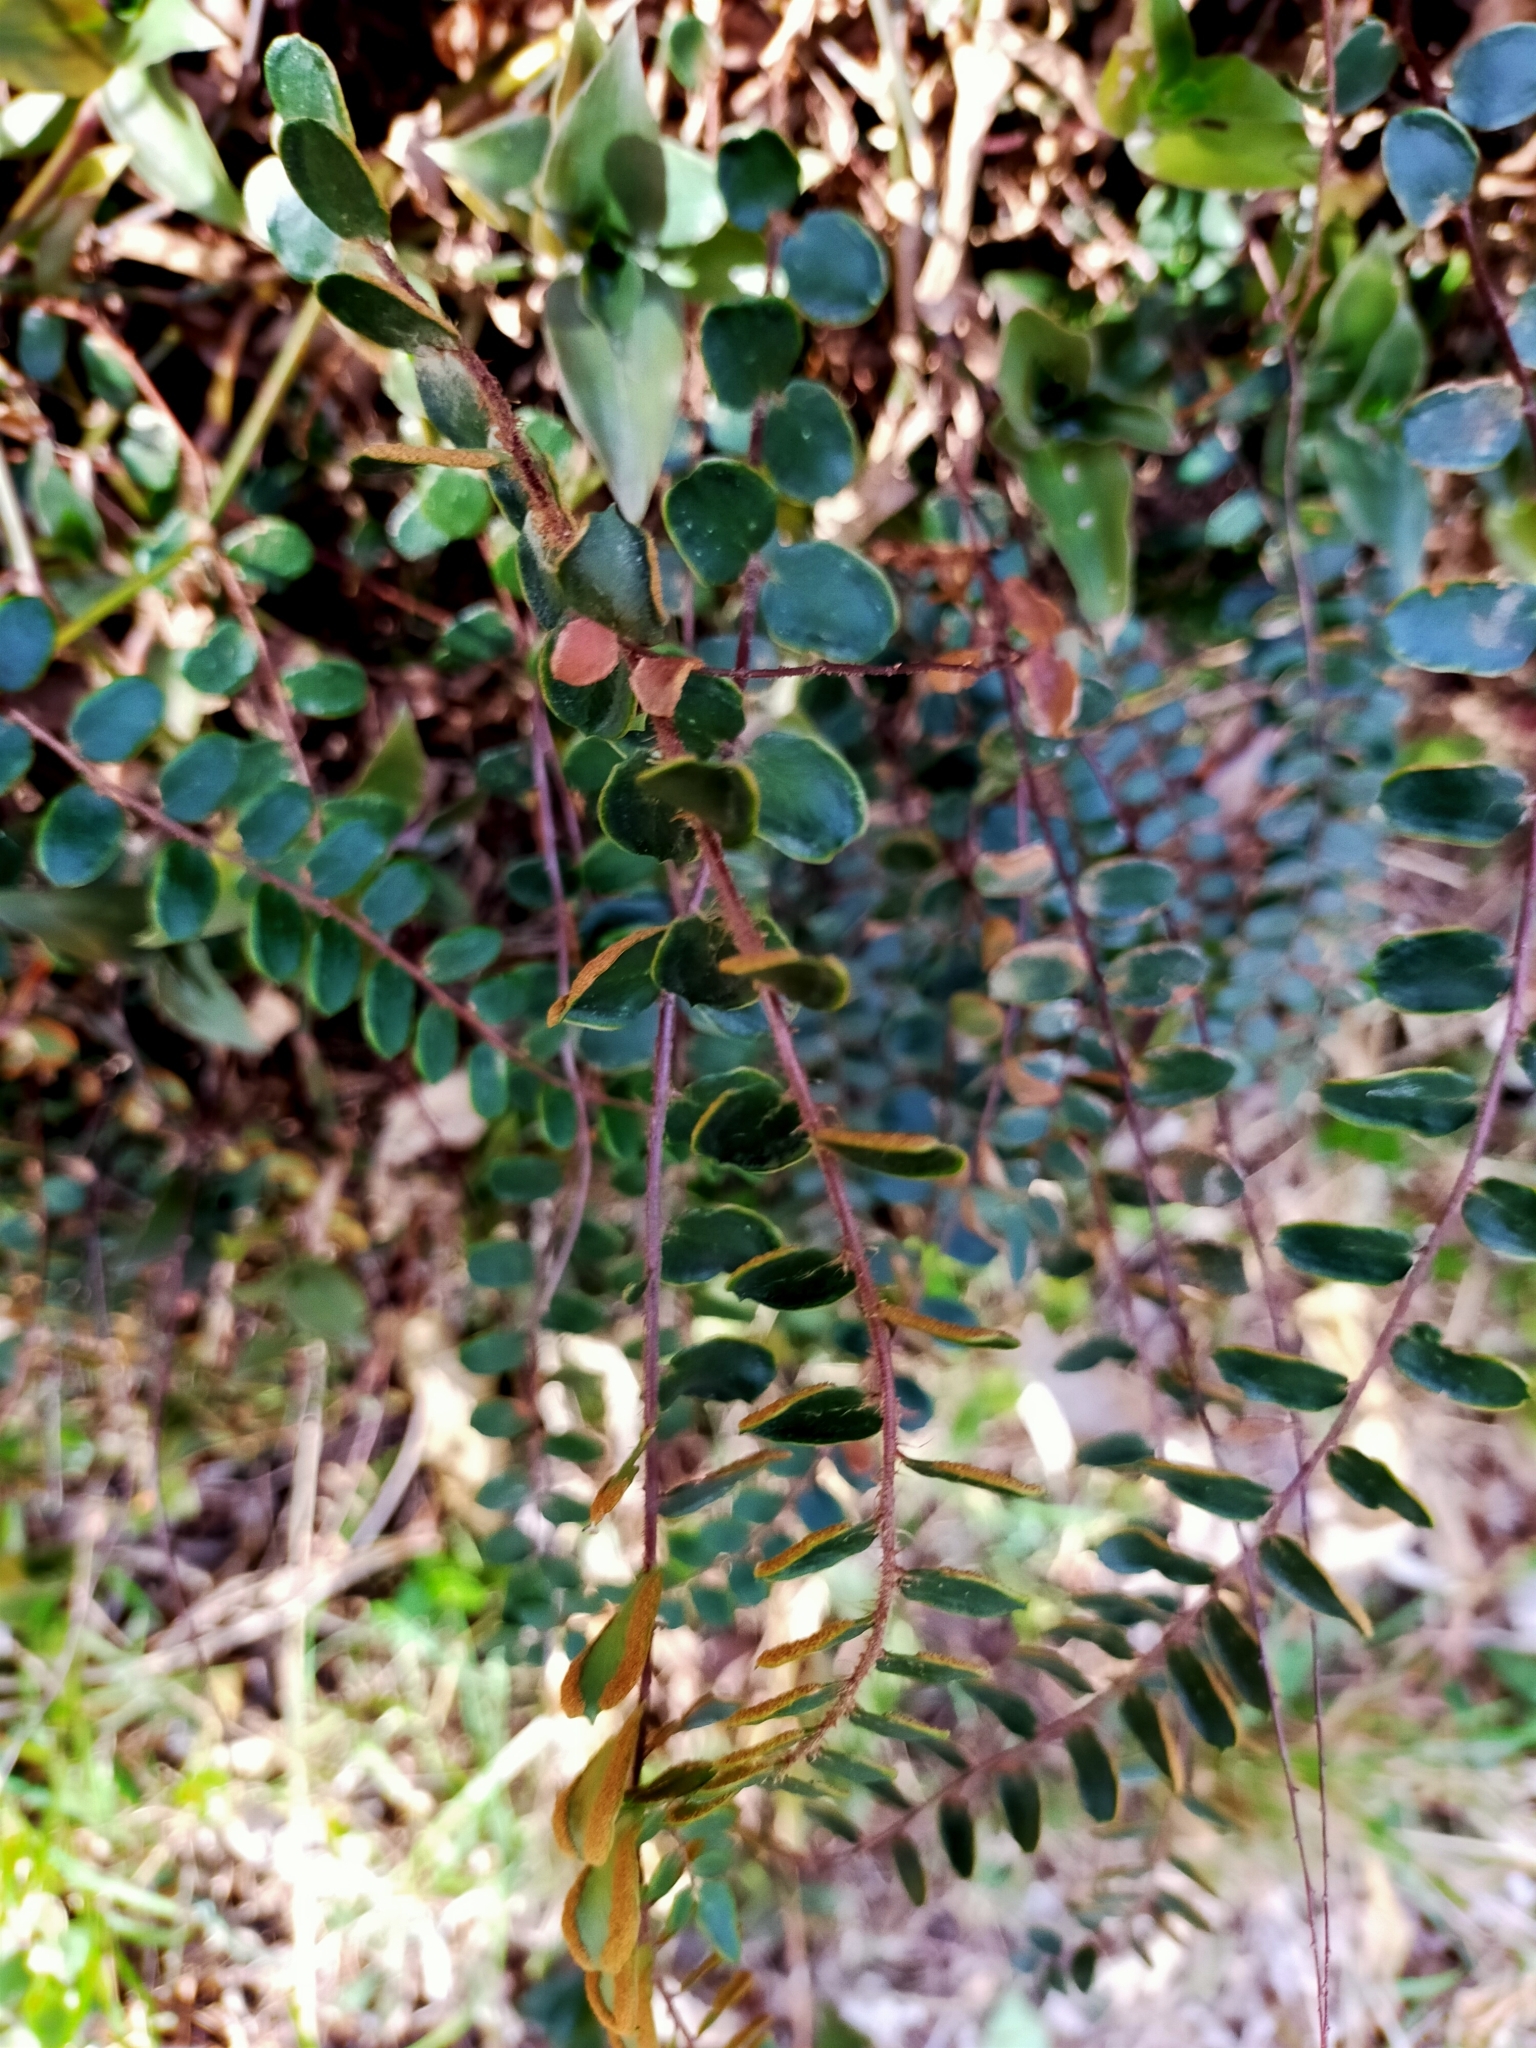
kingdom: Plantae
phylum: Tracheophyta
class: Polypodiopsida
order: Polypodiales
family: Pteridaceae
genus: Pellaea
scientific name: Pellaea rotundifolia
